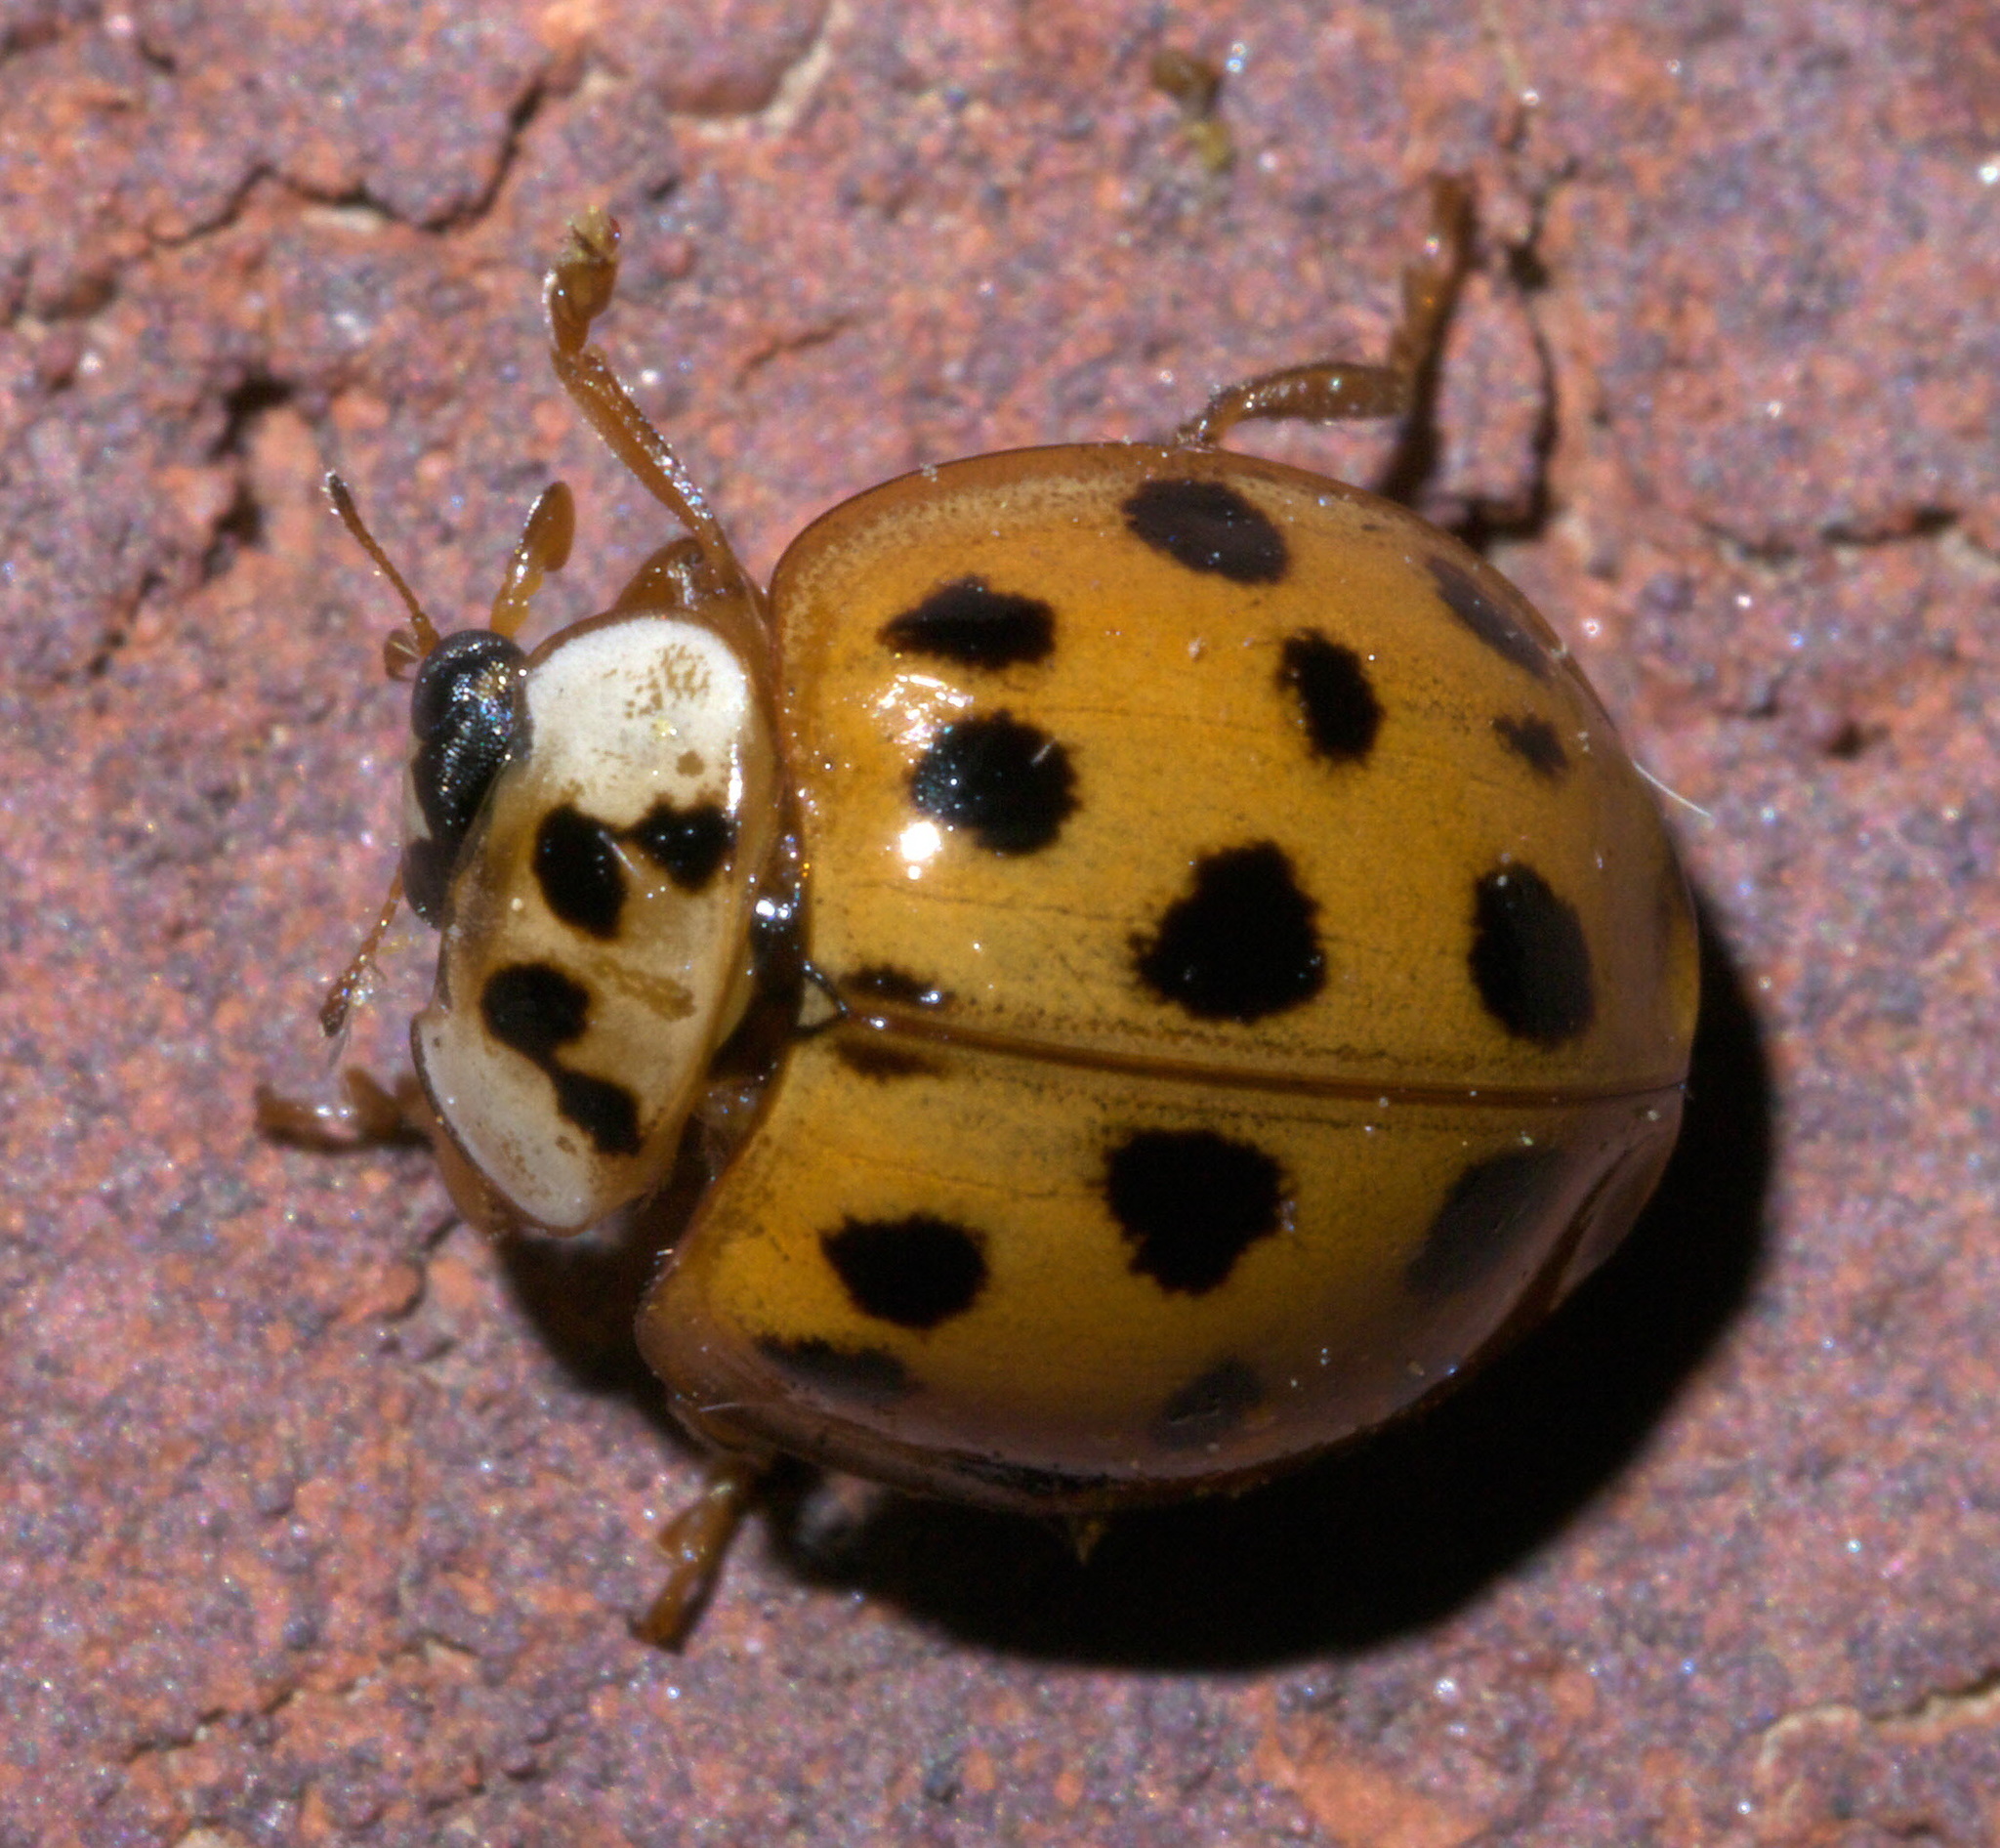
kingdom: Animalia
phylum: Arthropoda
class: Insecta
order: Coleoptera
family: Coccinellidae
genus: Harmonia
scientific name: Harmonia axyridis
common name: Harlequin ladybird
